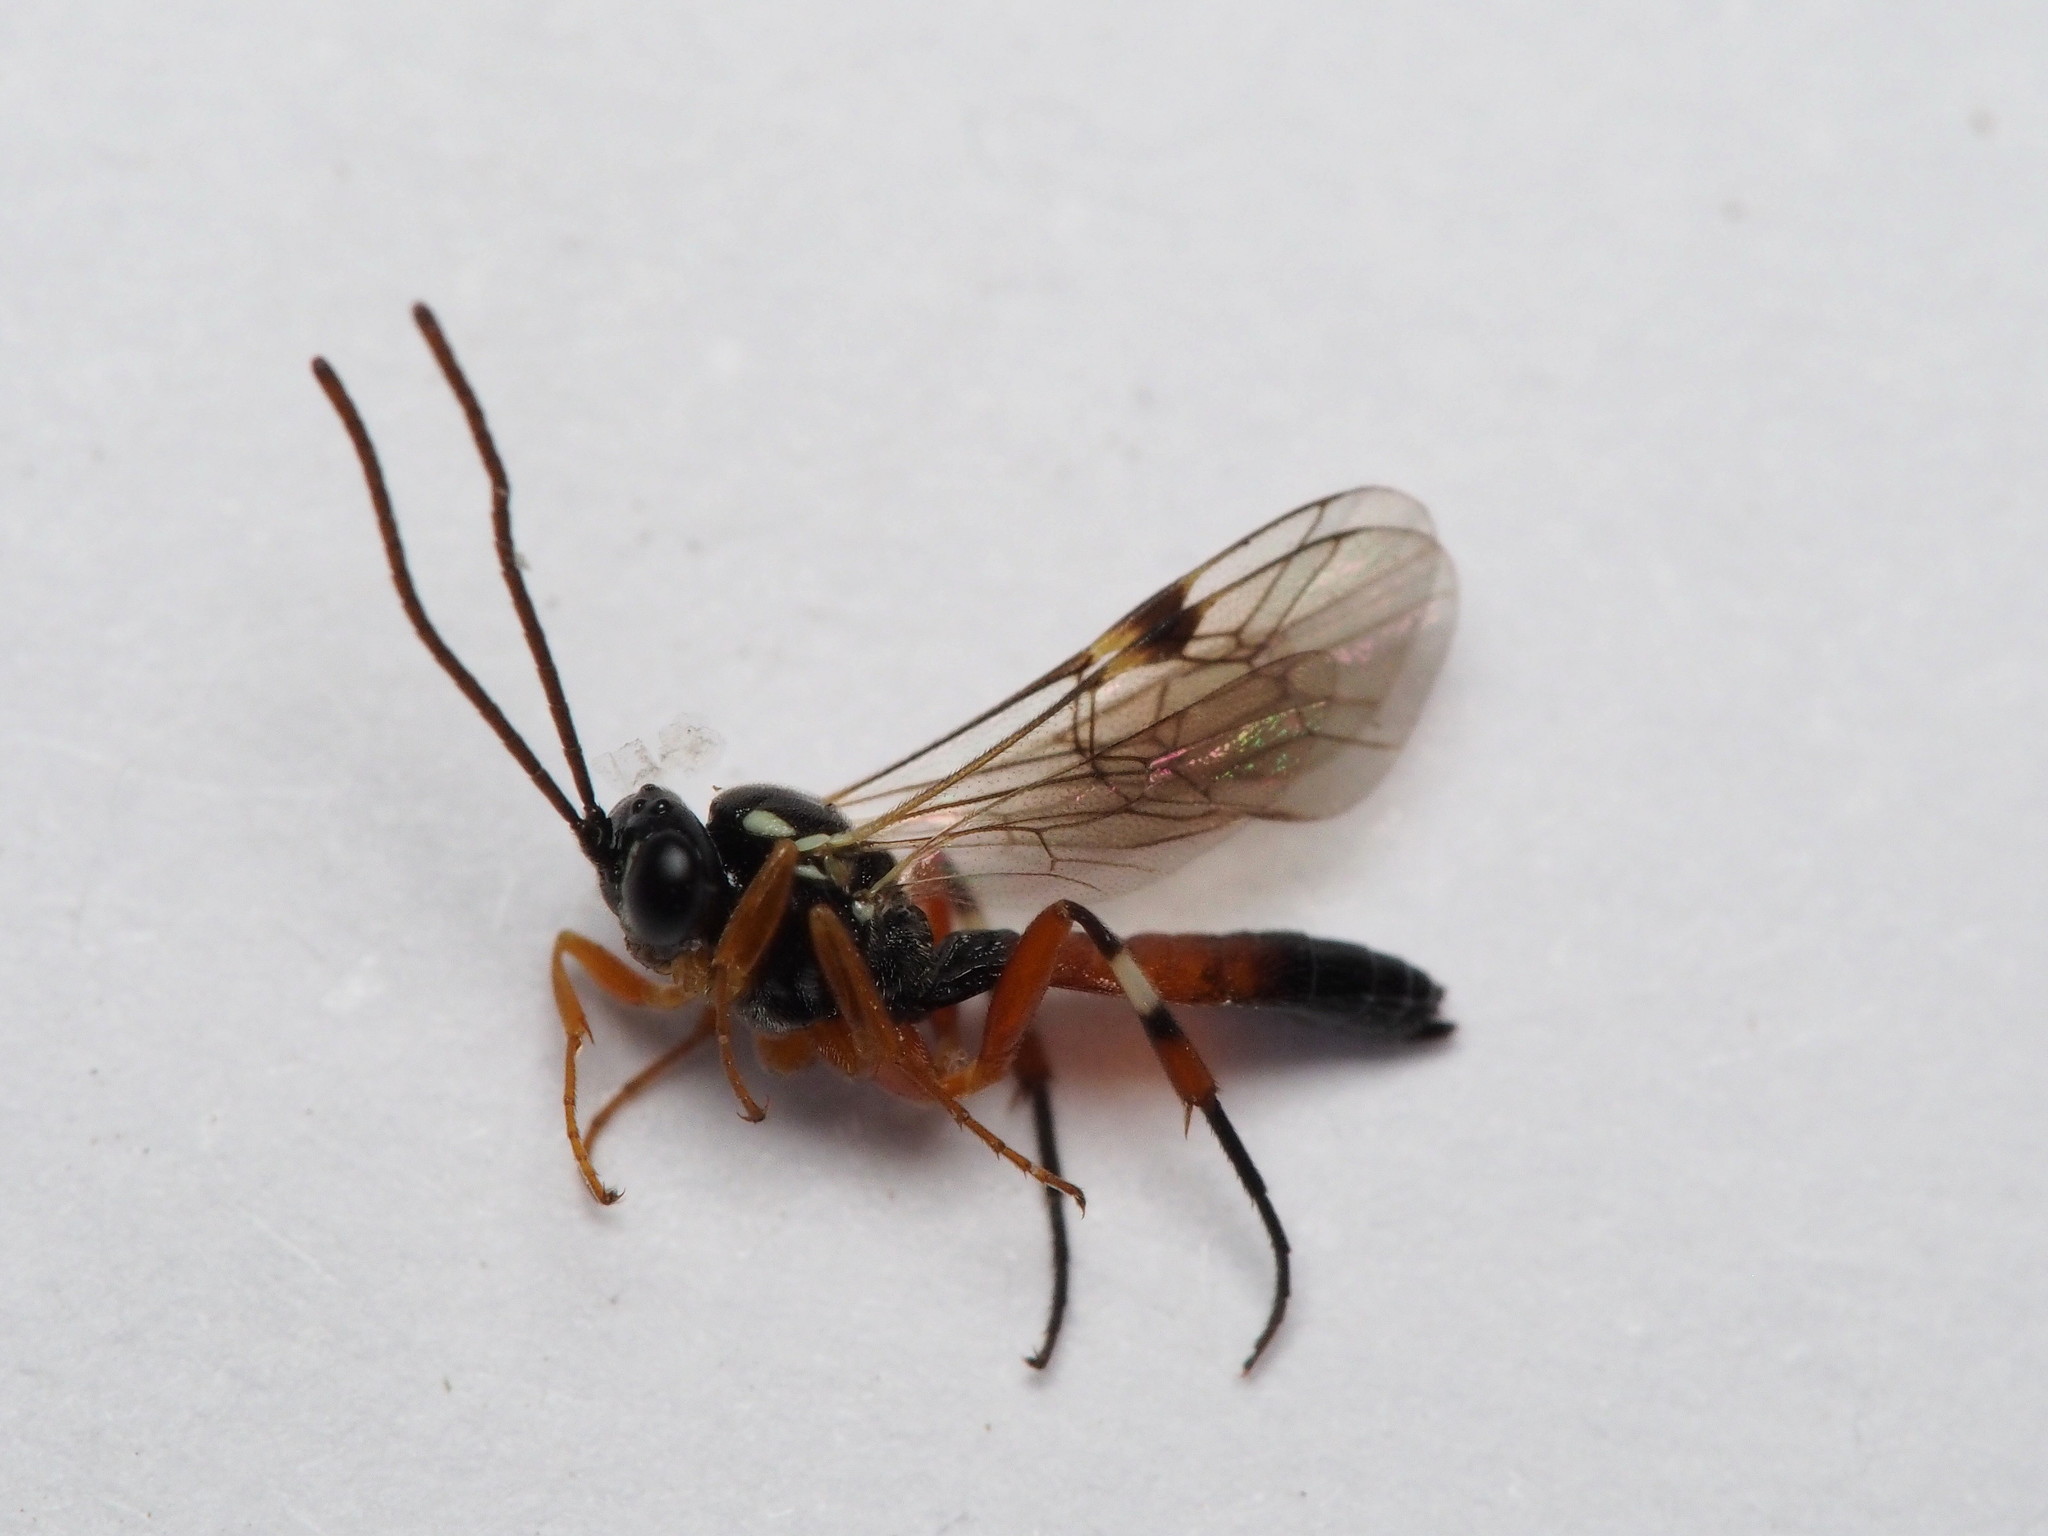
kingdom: Animalia
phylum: Arthropoda
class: Insecta
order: Hymenoptera
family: Ichneumonidae
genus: Diplazon
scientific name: Diplazon laetatorius
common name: Parasitoid wasp
